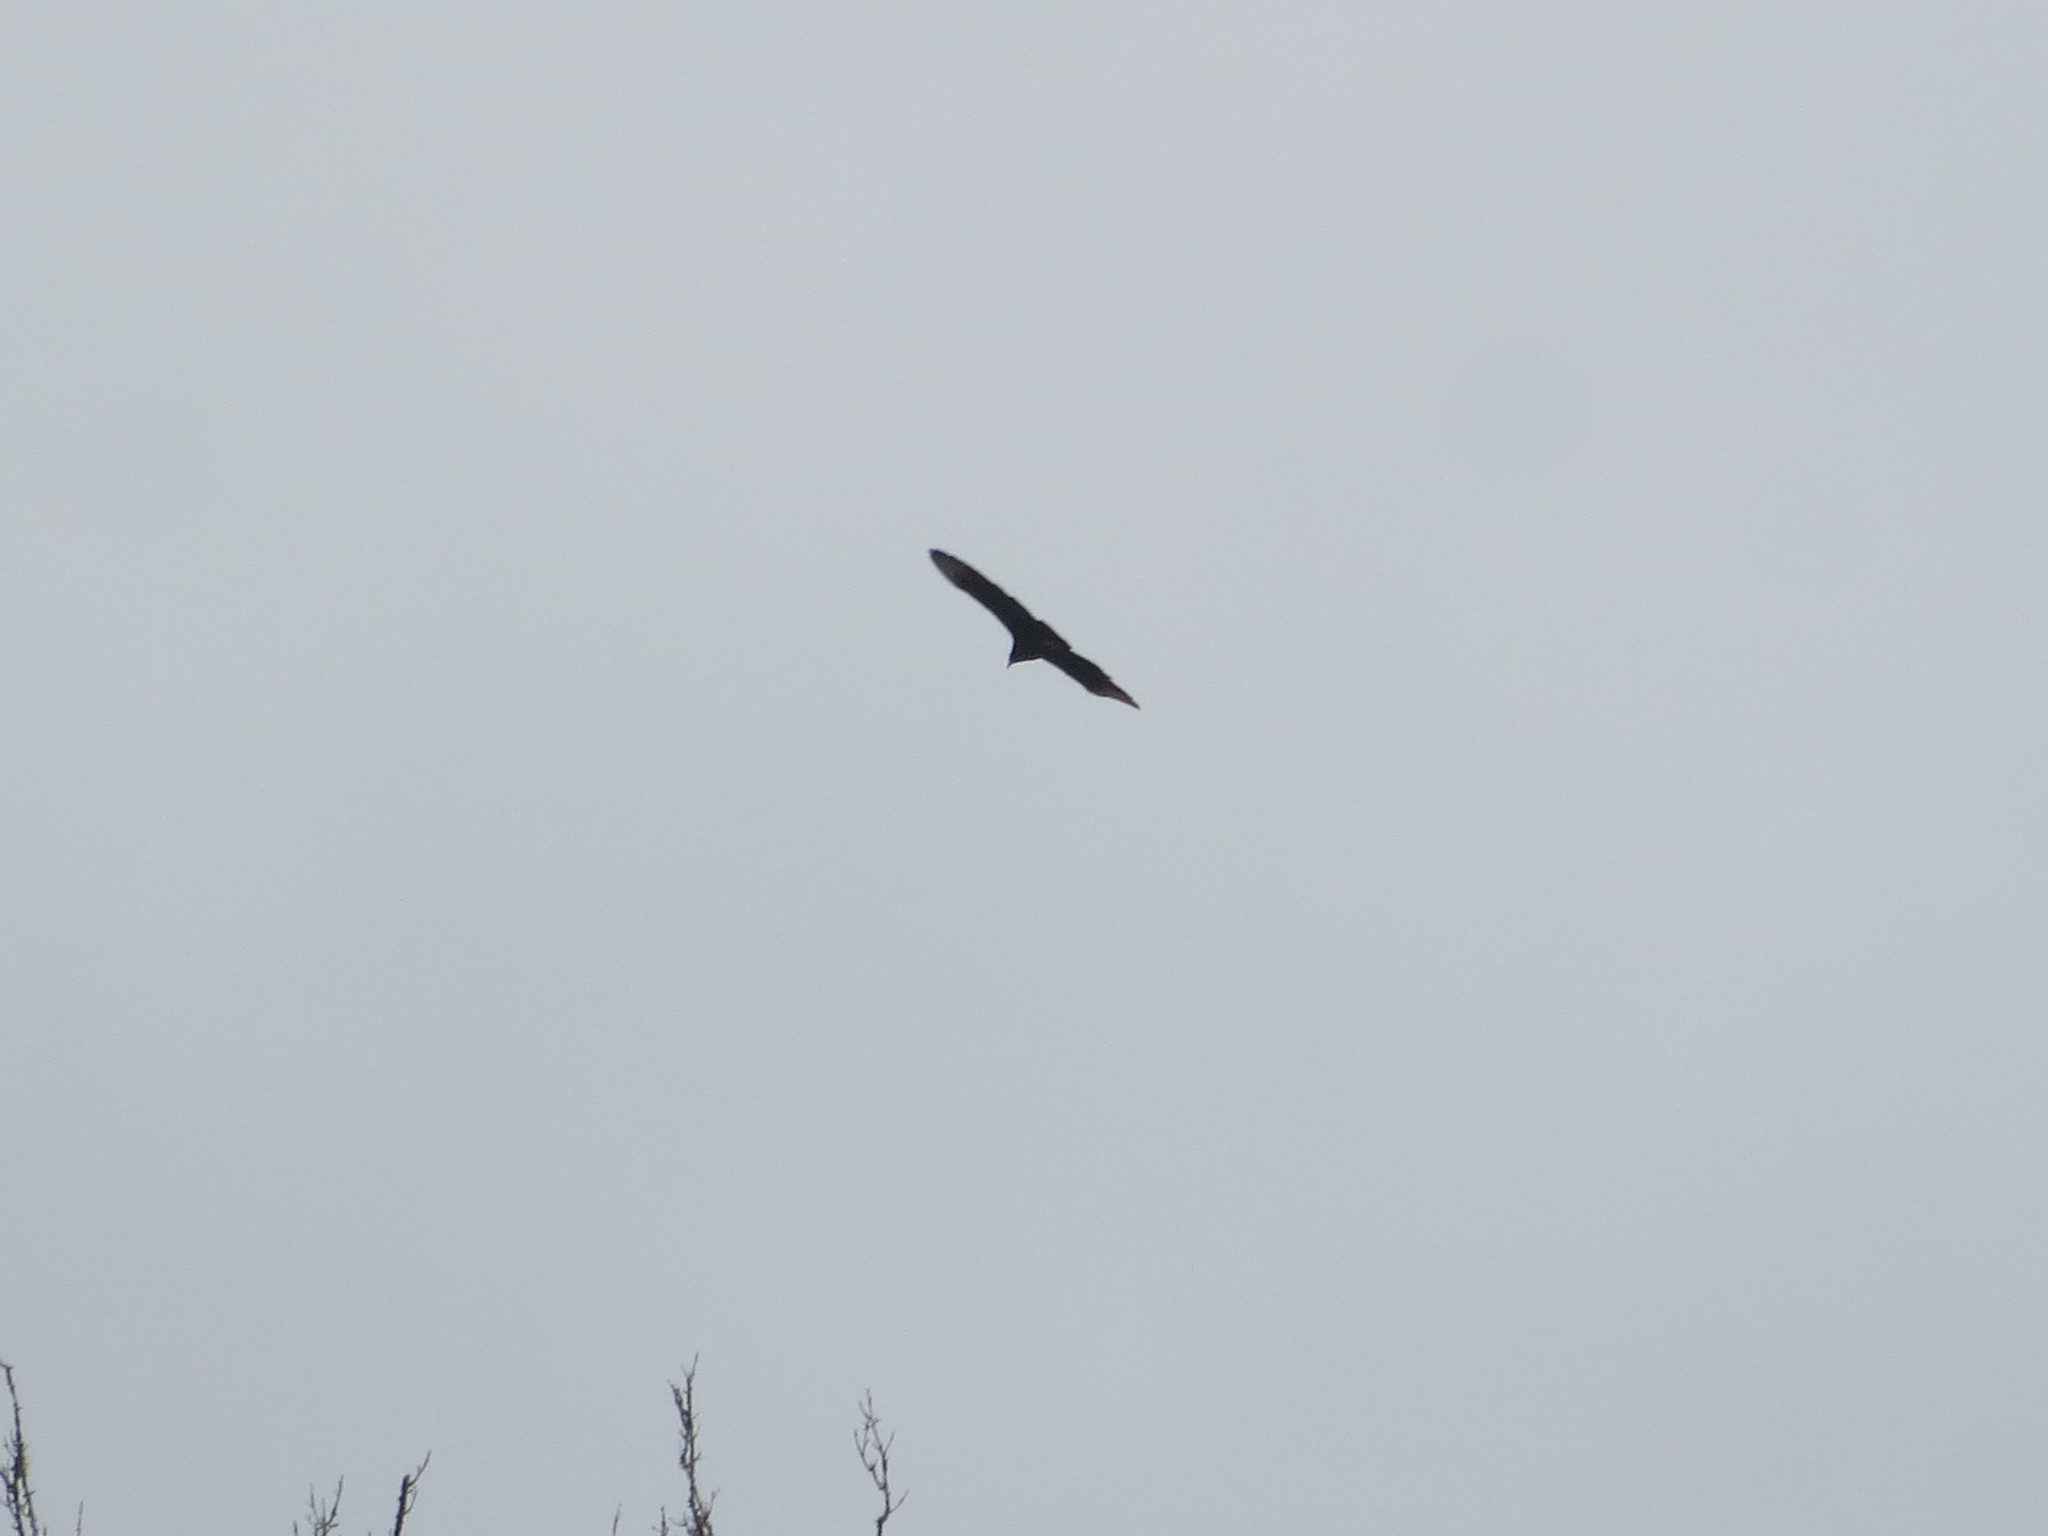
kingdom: Animalia
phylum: Chordata
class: Aves
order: Accipitriformes
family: Cathartidae
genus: Coragyps
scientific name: Coragyps atratus
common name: Black vulture
